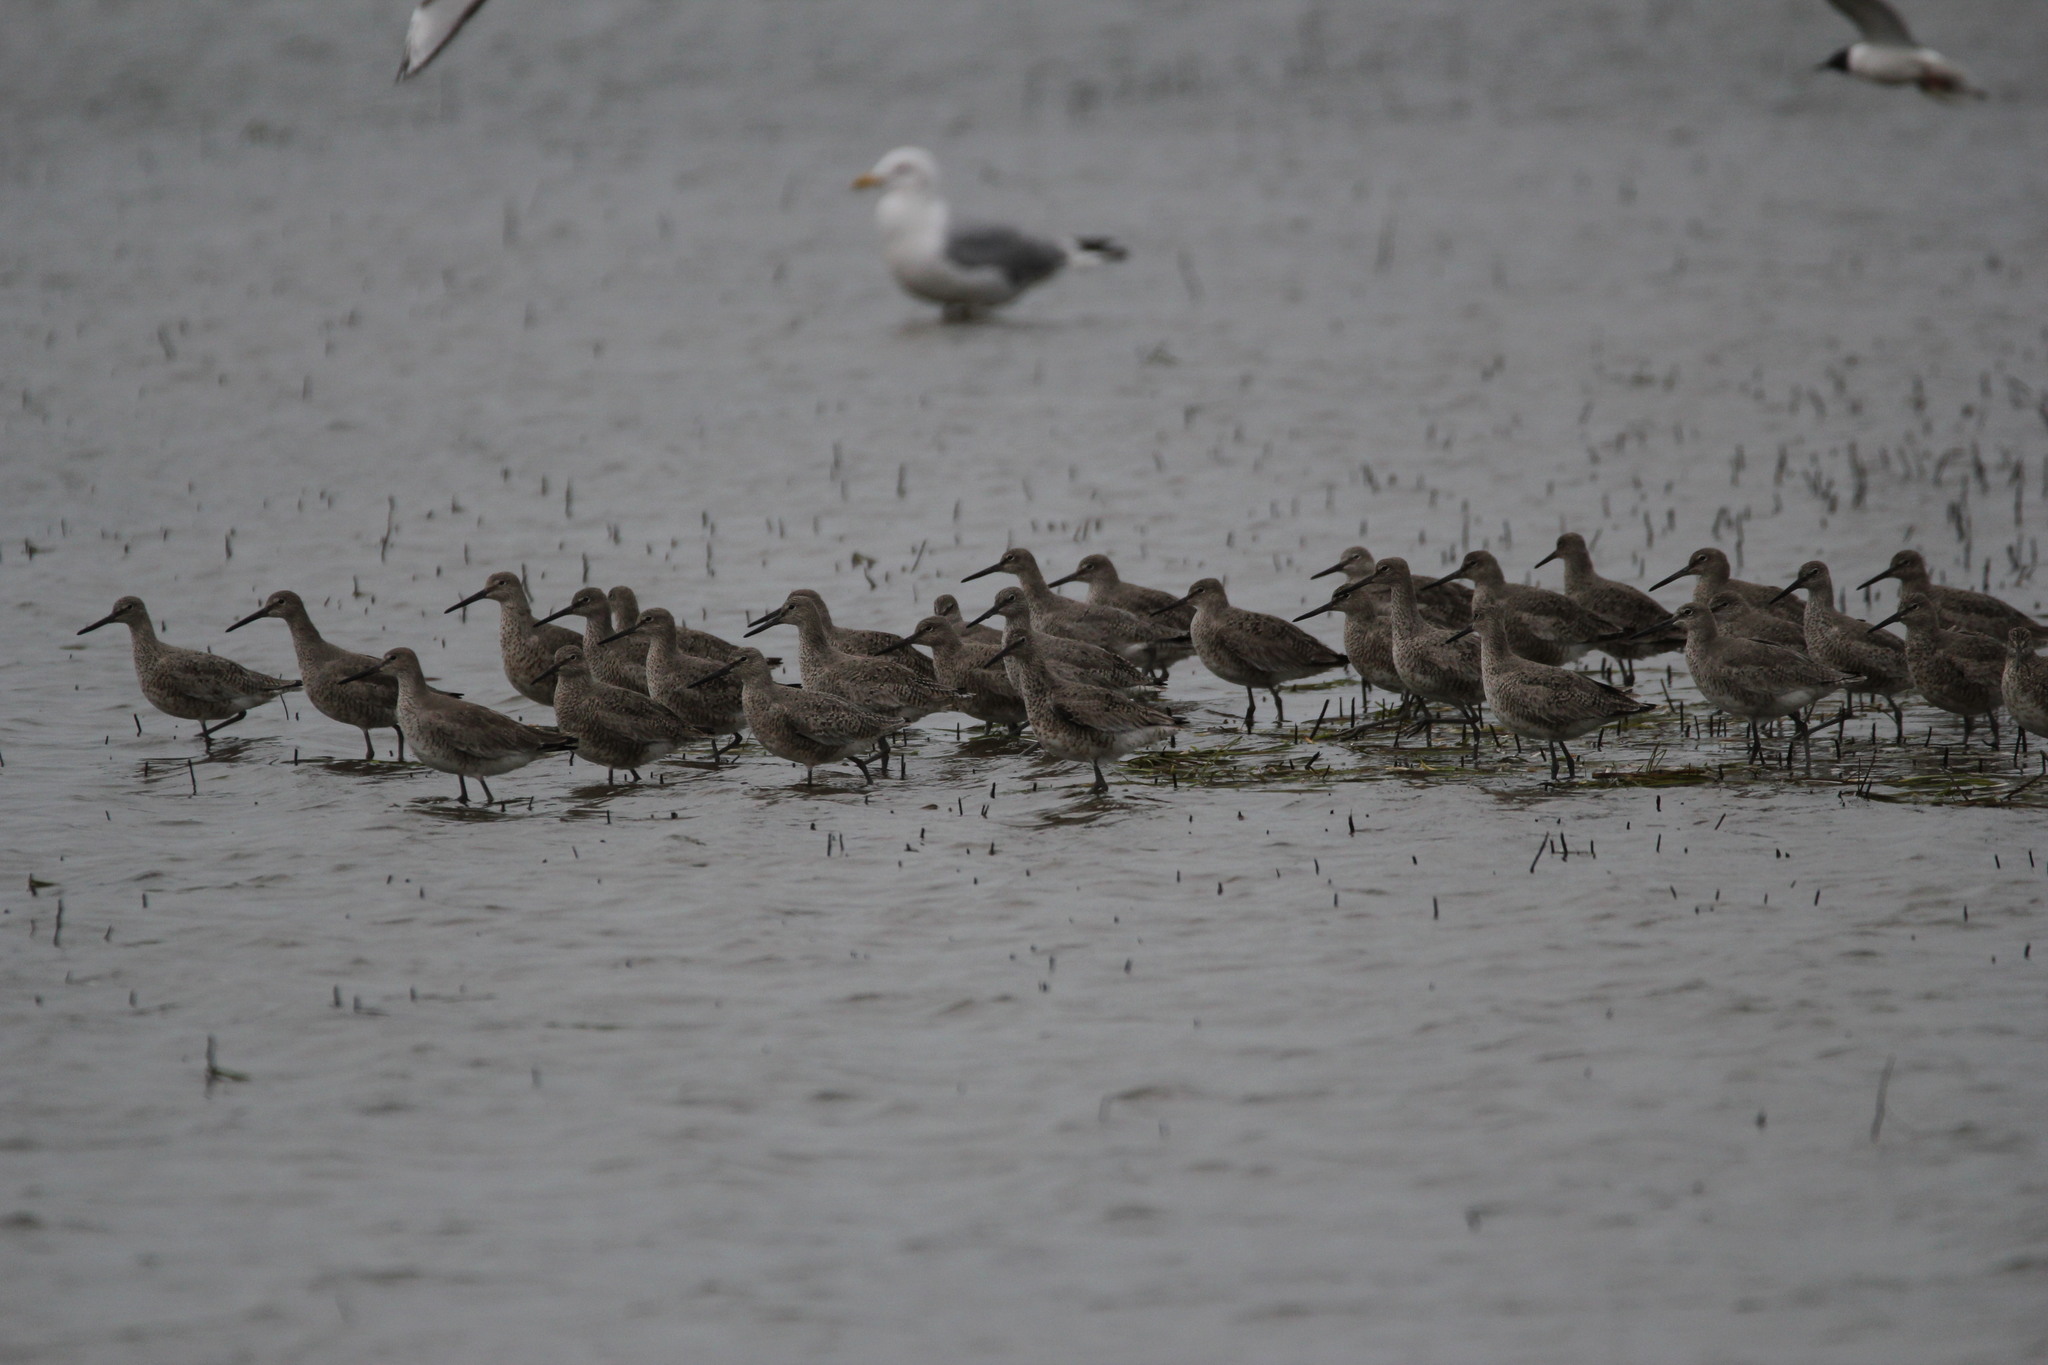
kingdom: Animalia
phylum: Chordata
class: Aves
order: Charadriiformes
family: Scolopacidae
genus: Tringa
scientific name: Tringa semipalmata
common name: Willet
